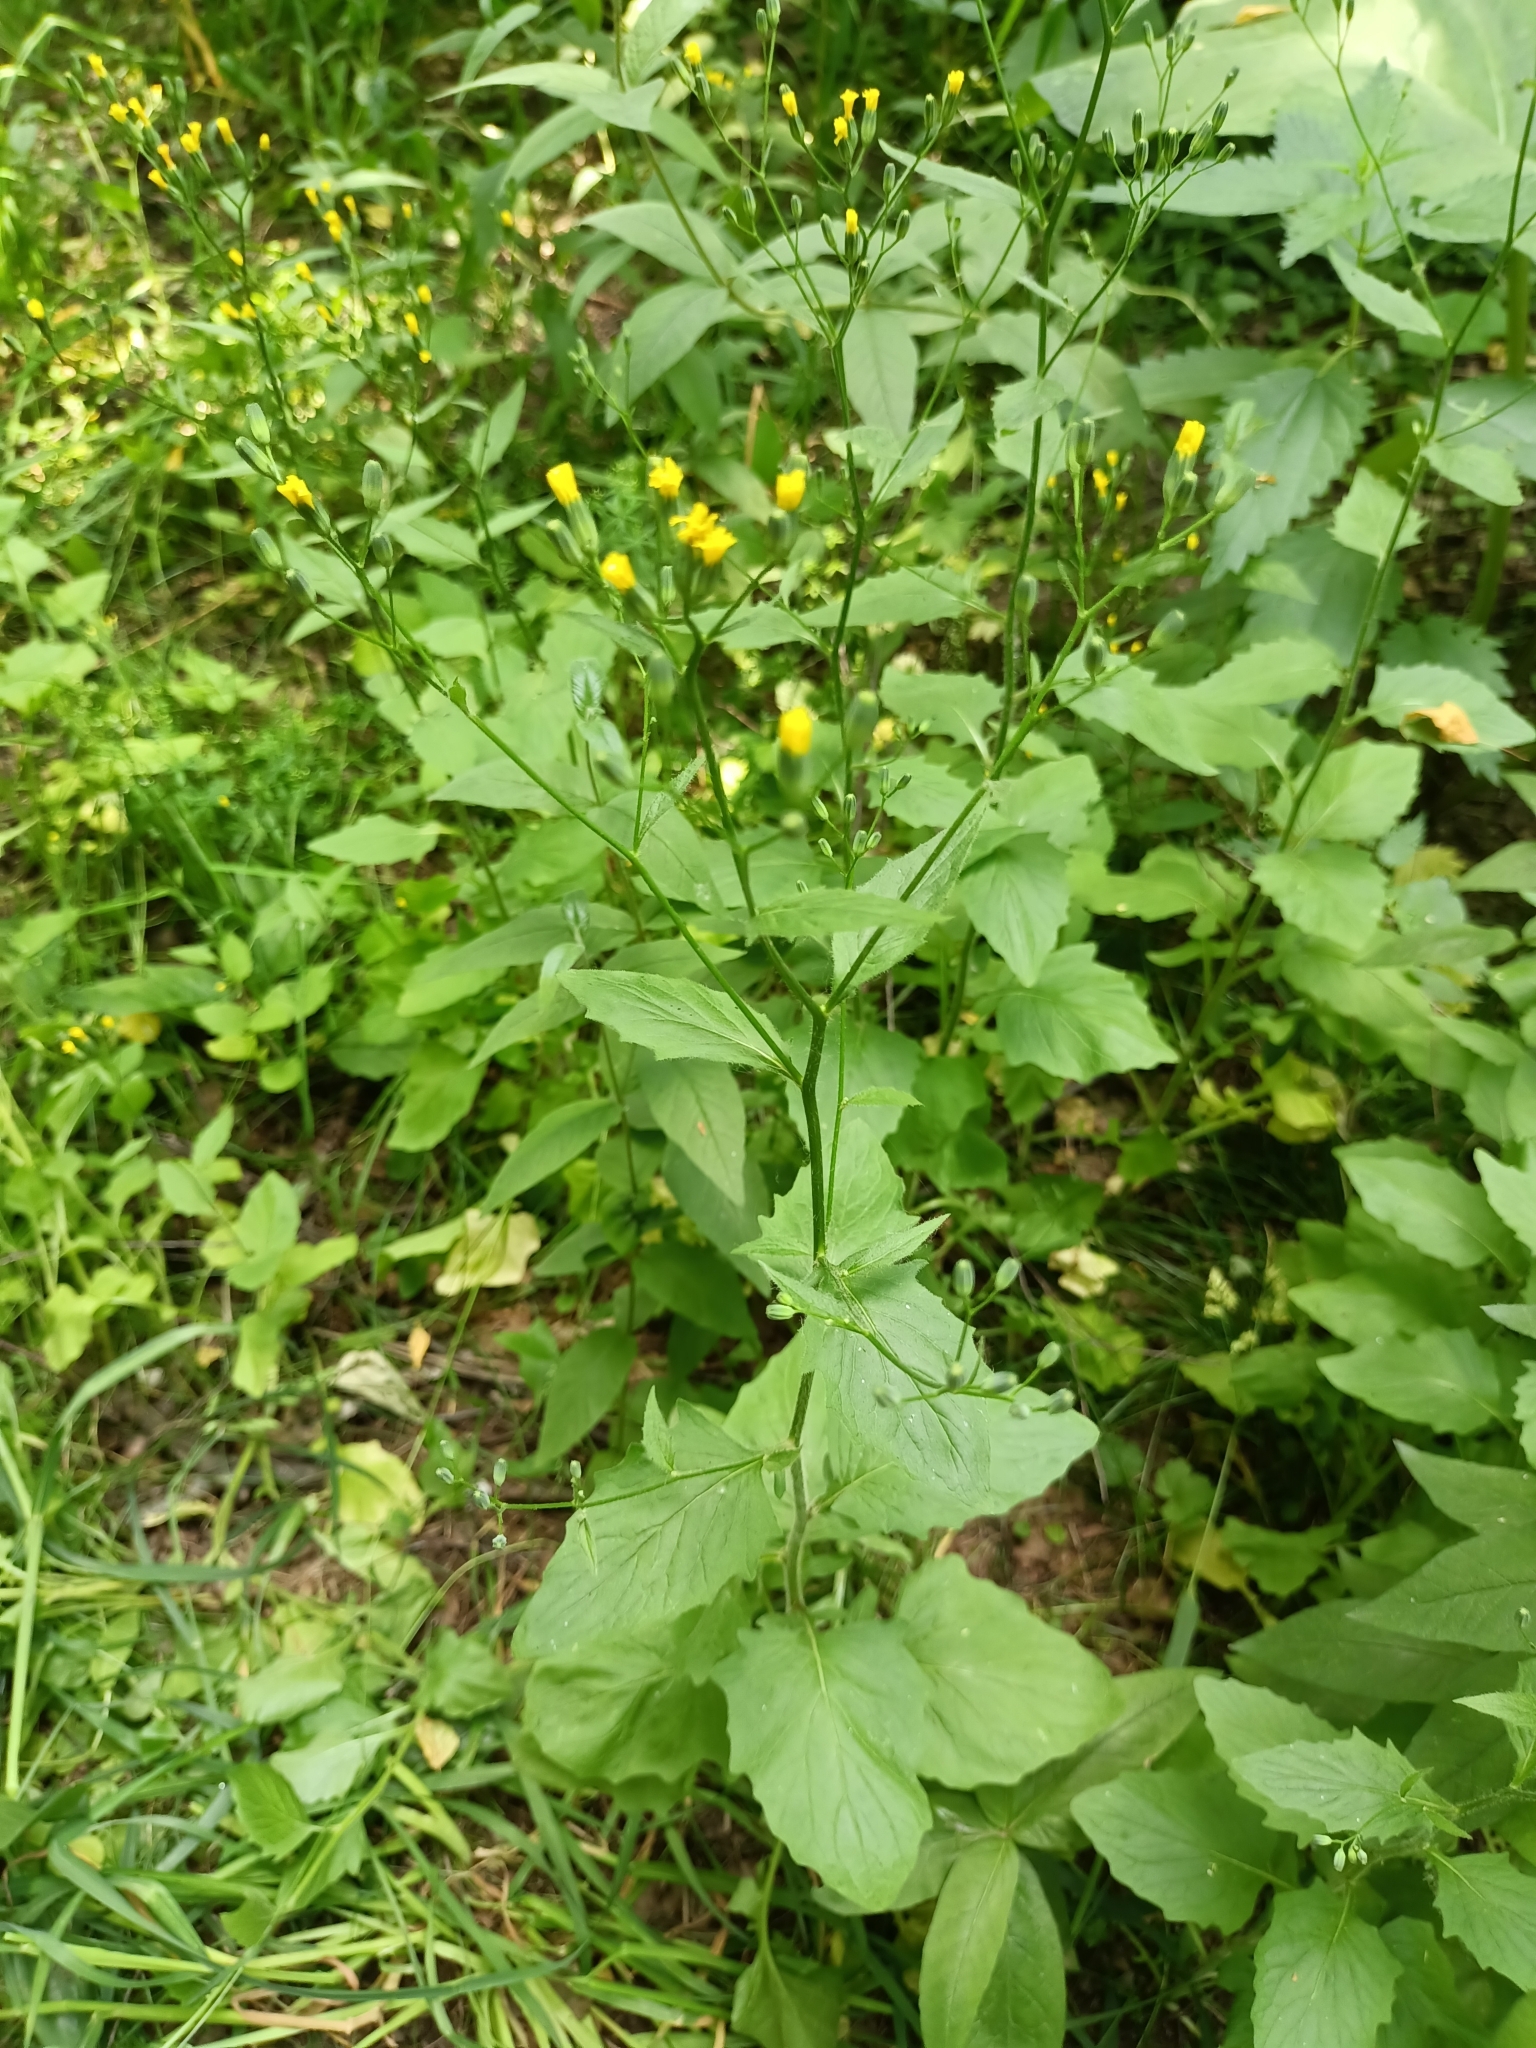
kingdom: Plantae
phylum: Tracheophyta
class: Magnoliopsida
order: Asterales
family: Asteraceae
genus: Lapsana
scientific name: Lapsana communis
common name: Nipplewort
